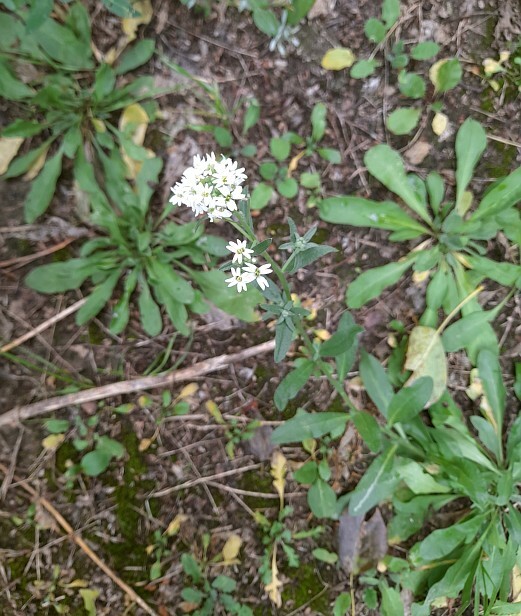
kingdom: Plantae
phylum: Tracheophyta
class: Magnoliopsida
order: Brassicales
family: Brassicaceae
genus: Berteroa
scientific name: Berteroa incana
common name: Hoary alison
